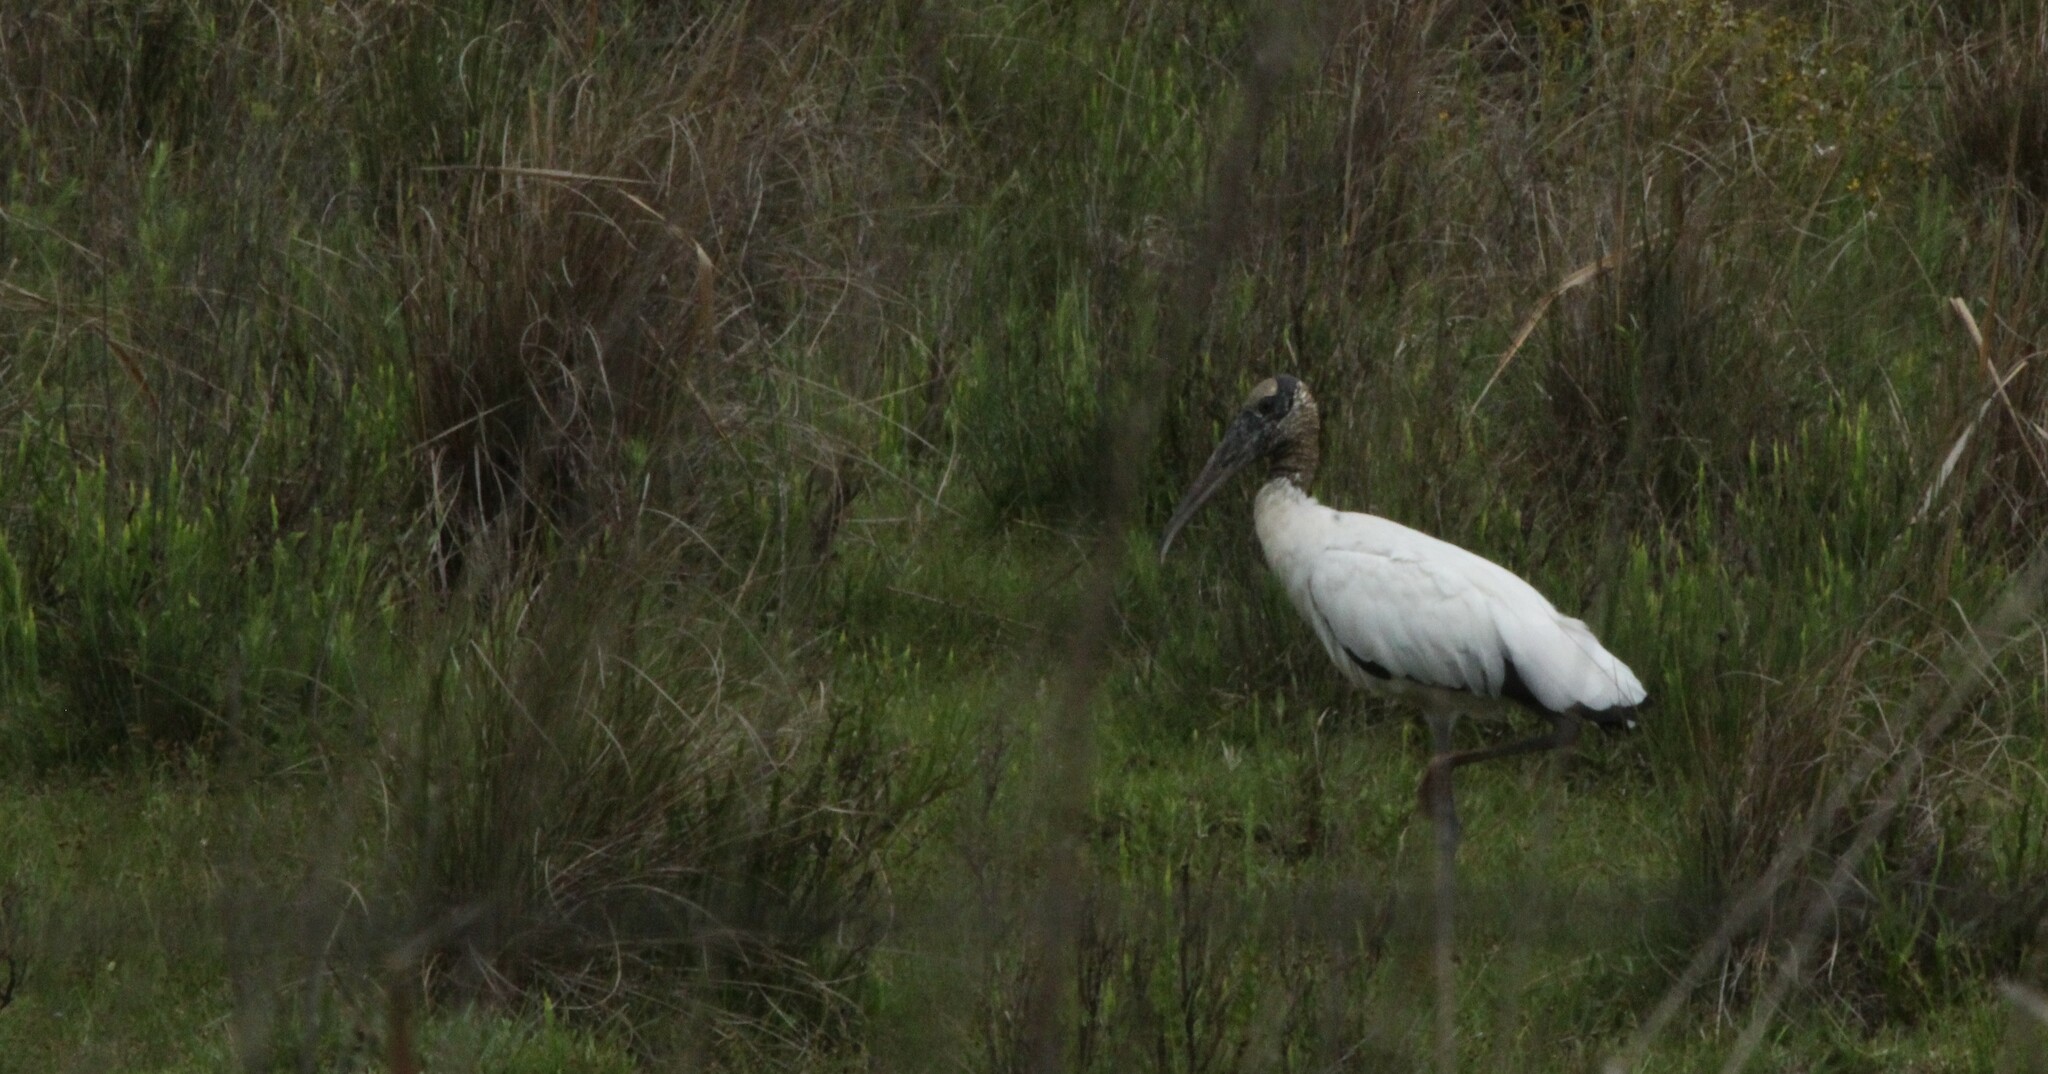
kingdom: Animalia
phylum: Chordata
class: Aves
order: Ciconiiformes
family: Ciconiidae
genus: Mycteria
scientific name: Mycteria americana
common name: Wood stork
